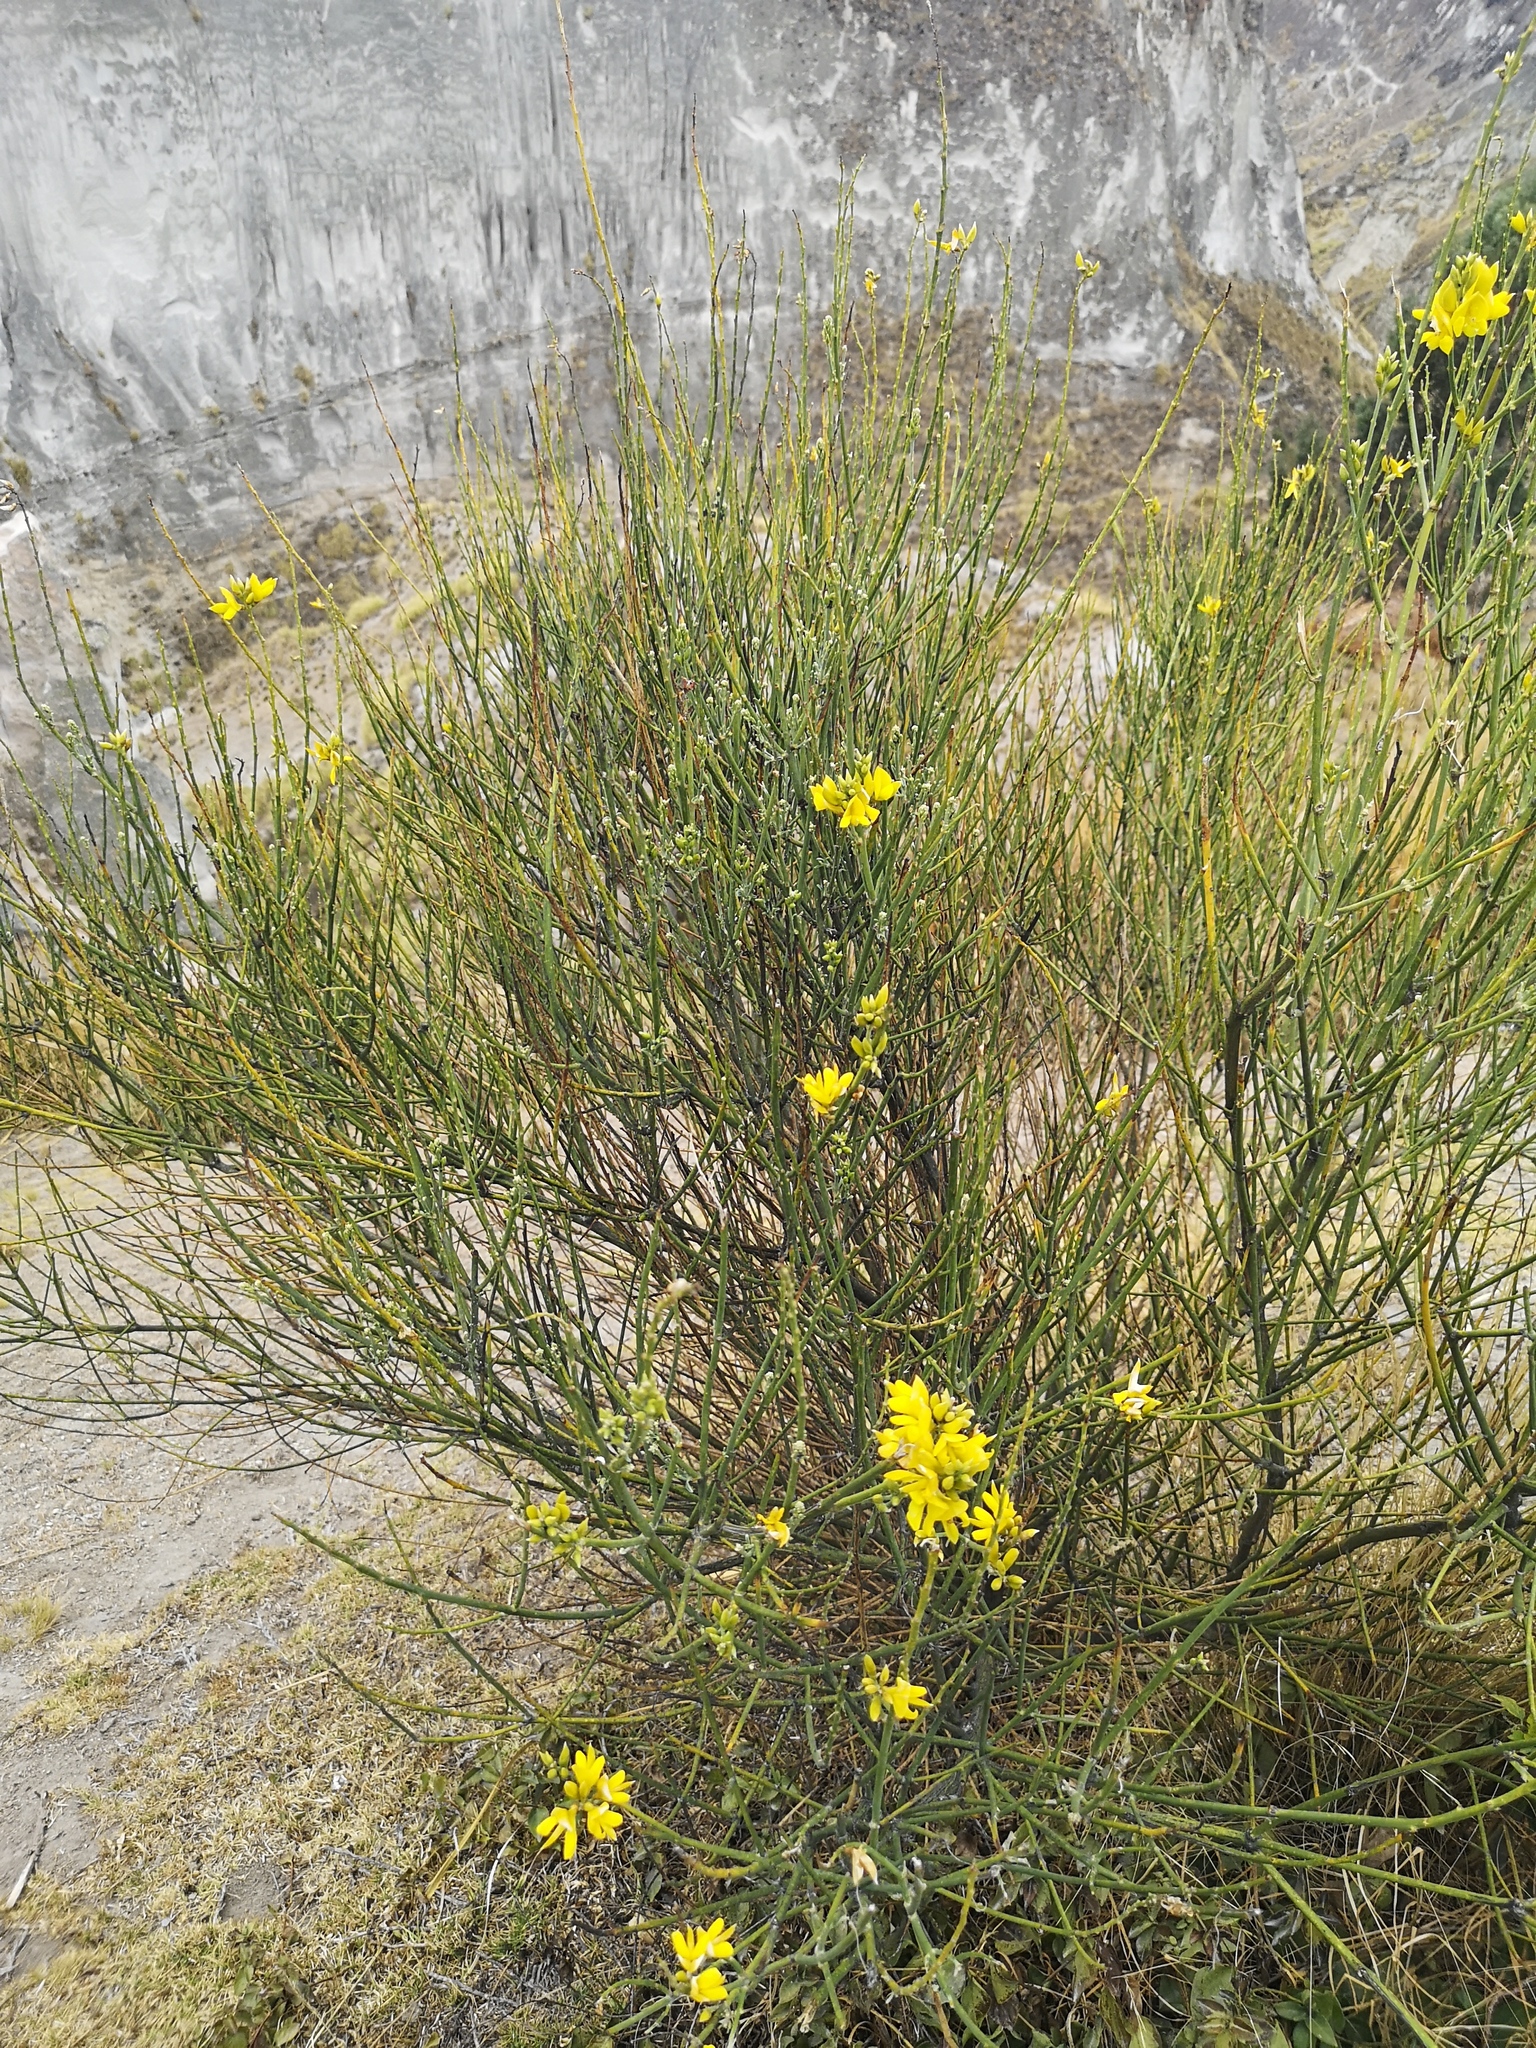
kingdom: Plantae
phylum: Tracheophyta
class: Magnoliopsida
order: Fabales
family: Fabaceae
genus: Spartium
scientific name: Spartium junceum
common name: Spanish broom
